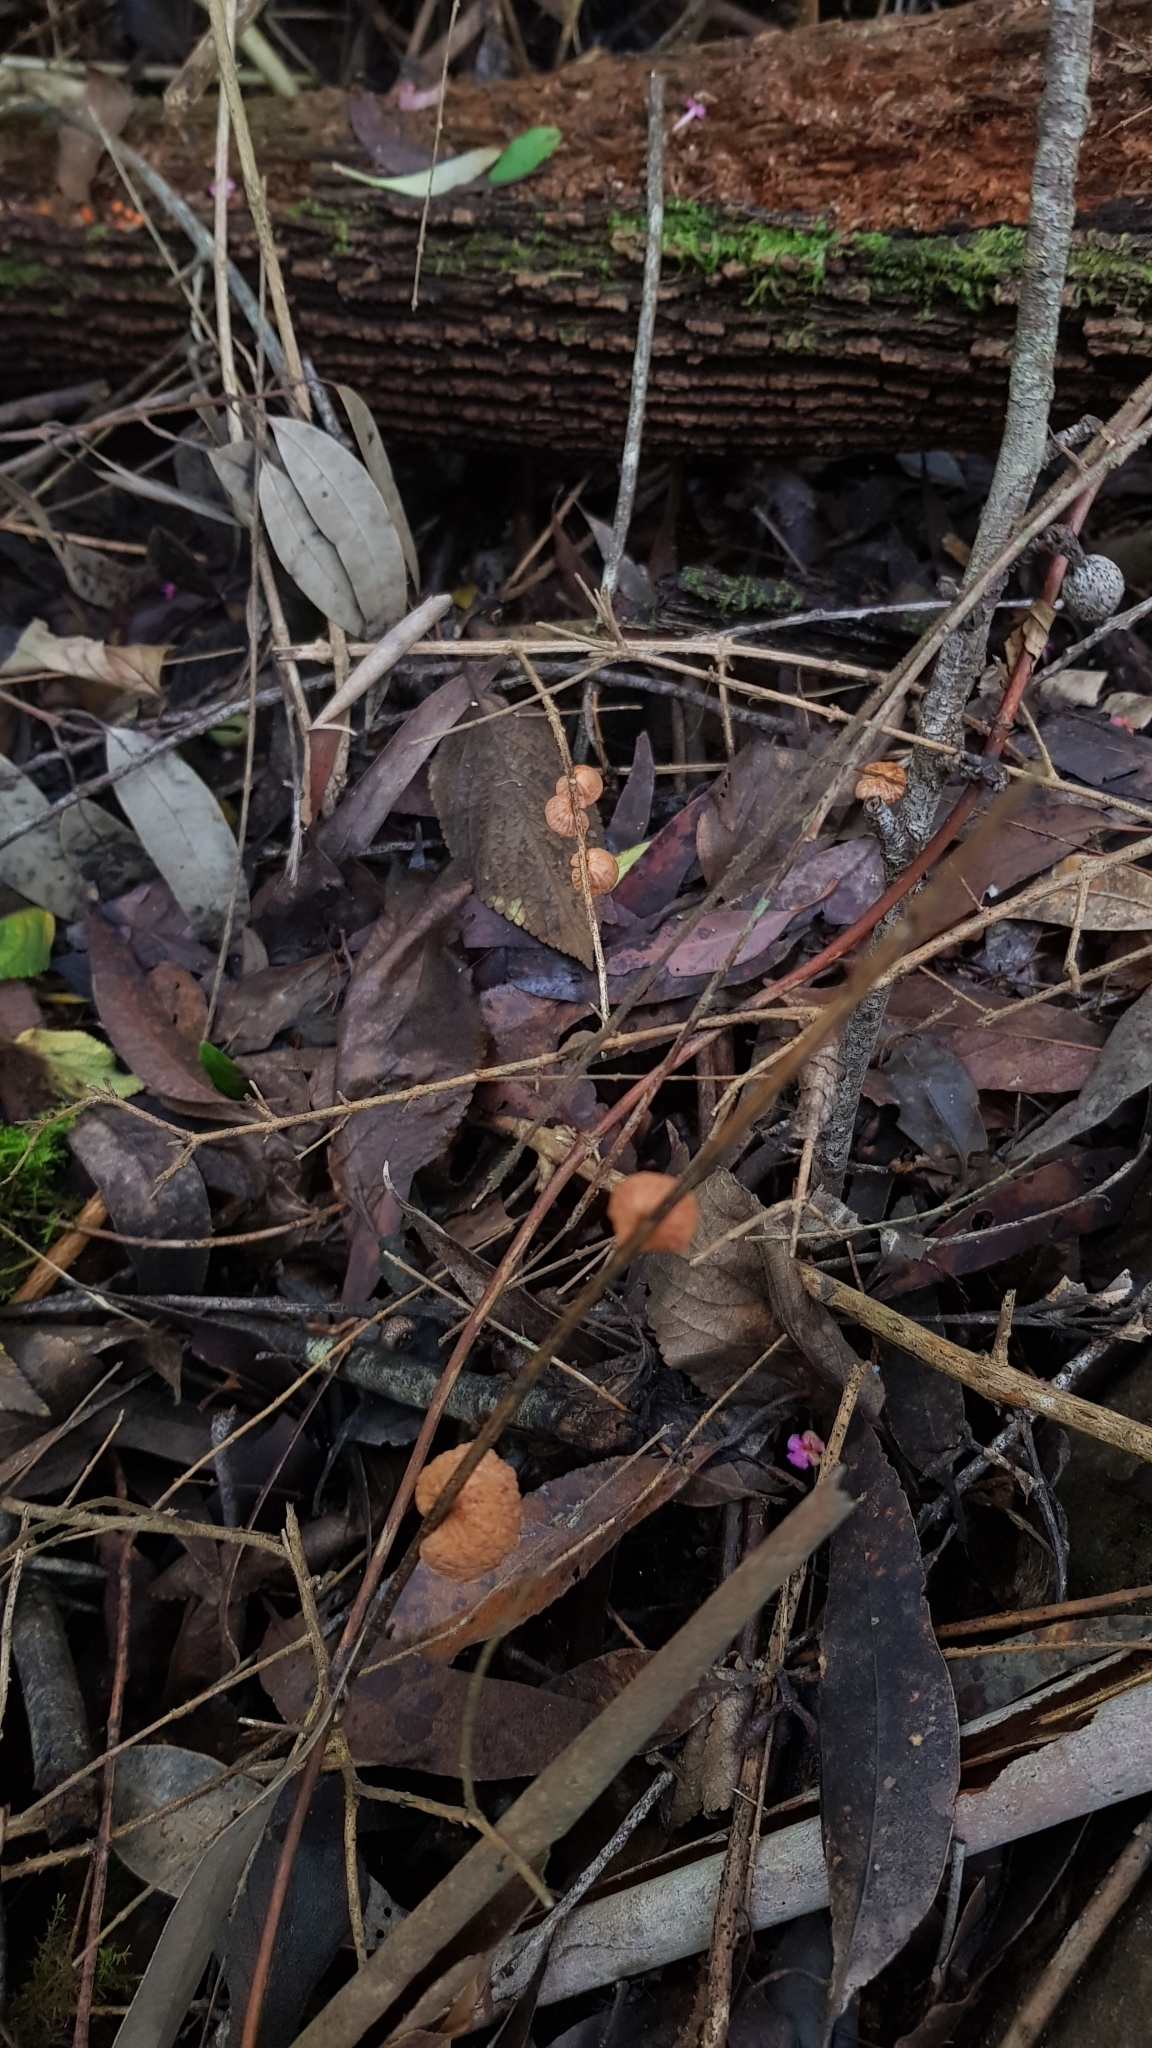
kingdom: Fungi
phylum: Basidiomycota
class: Agaricomycetes
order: Agaricales
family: Omphalotaceae
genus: Anthracophyllum
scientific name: Anthracophyllum archeri
